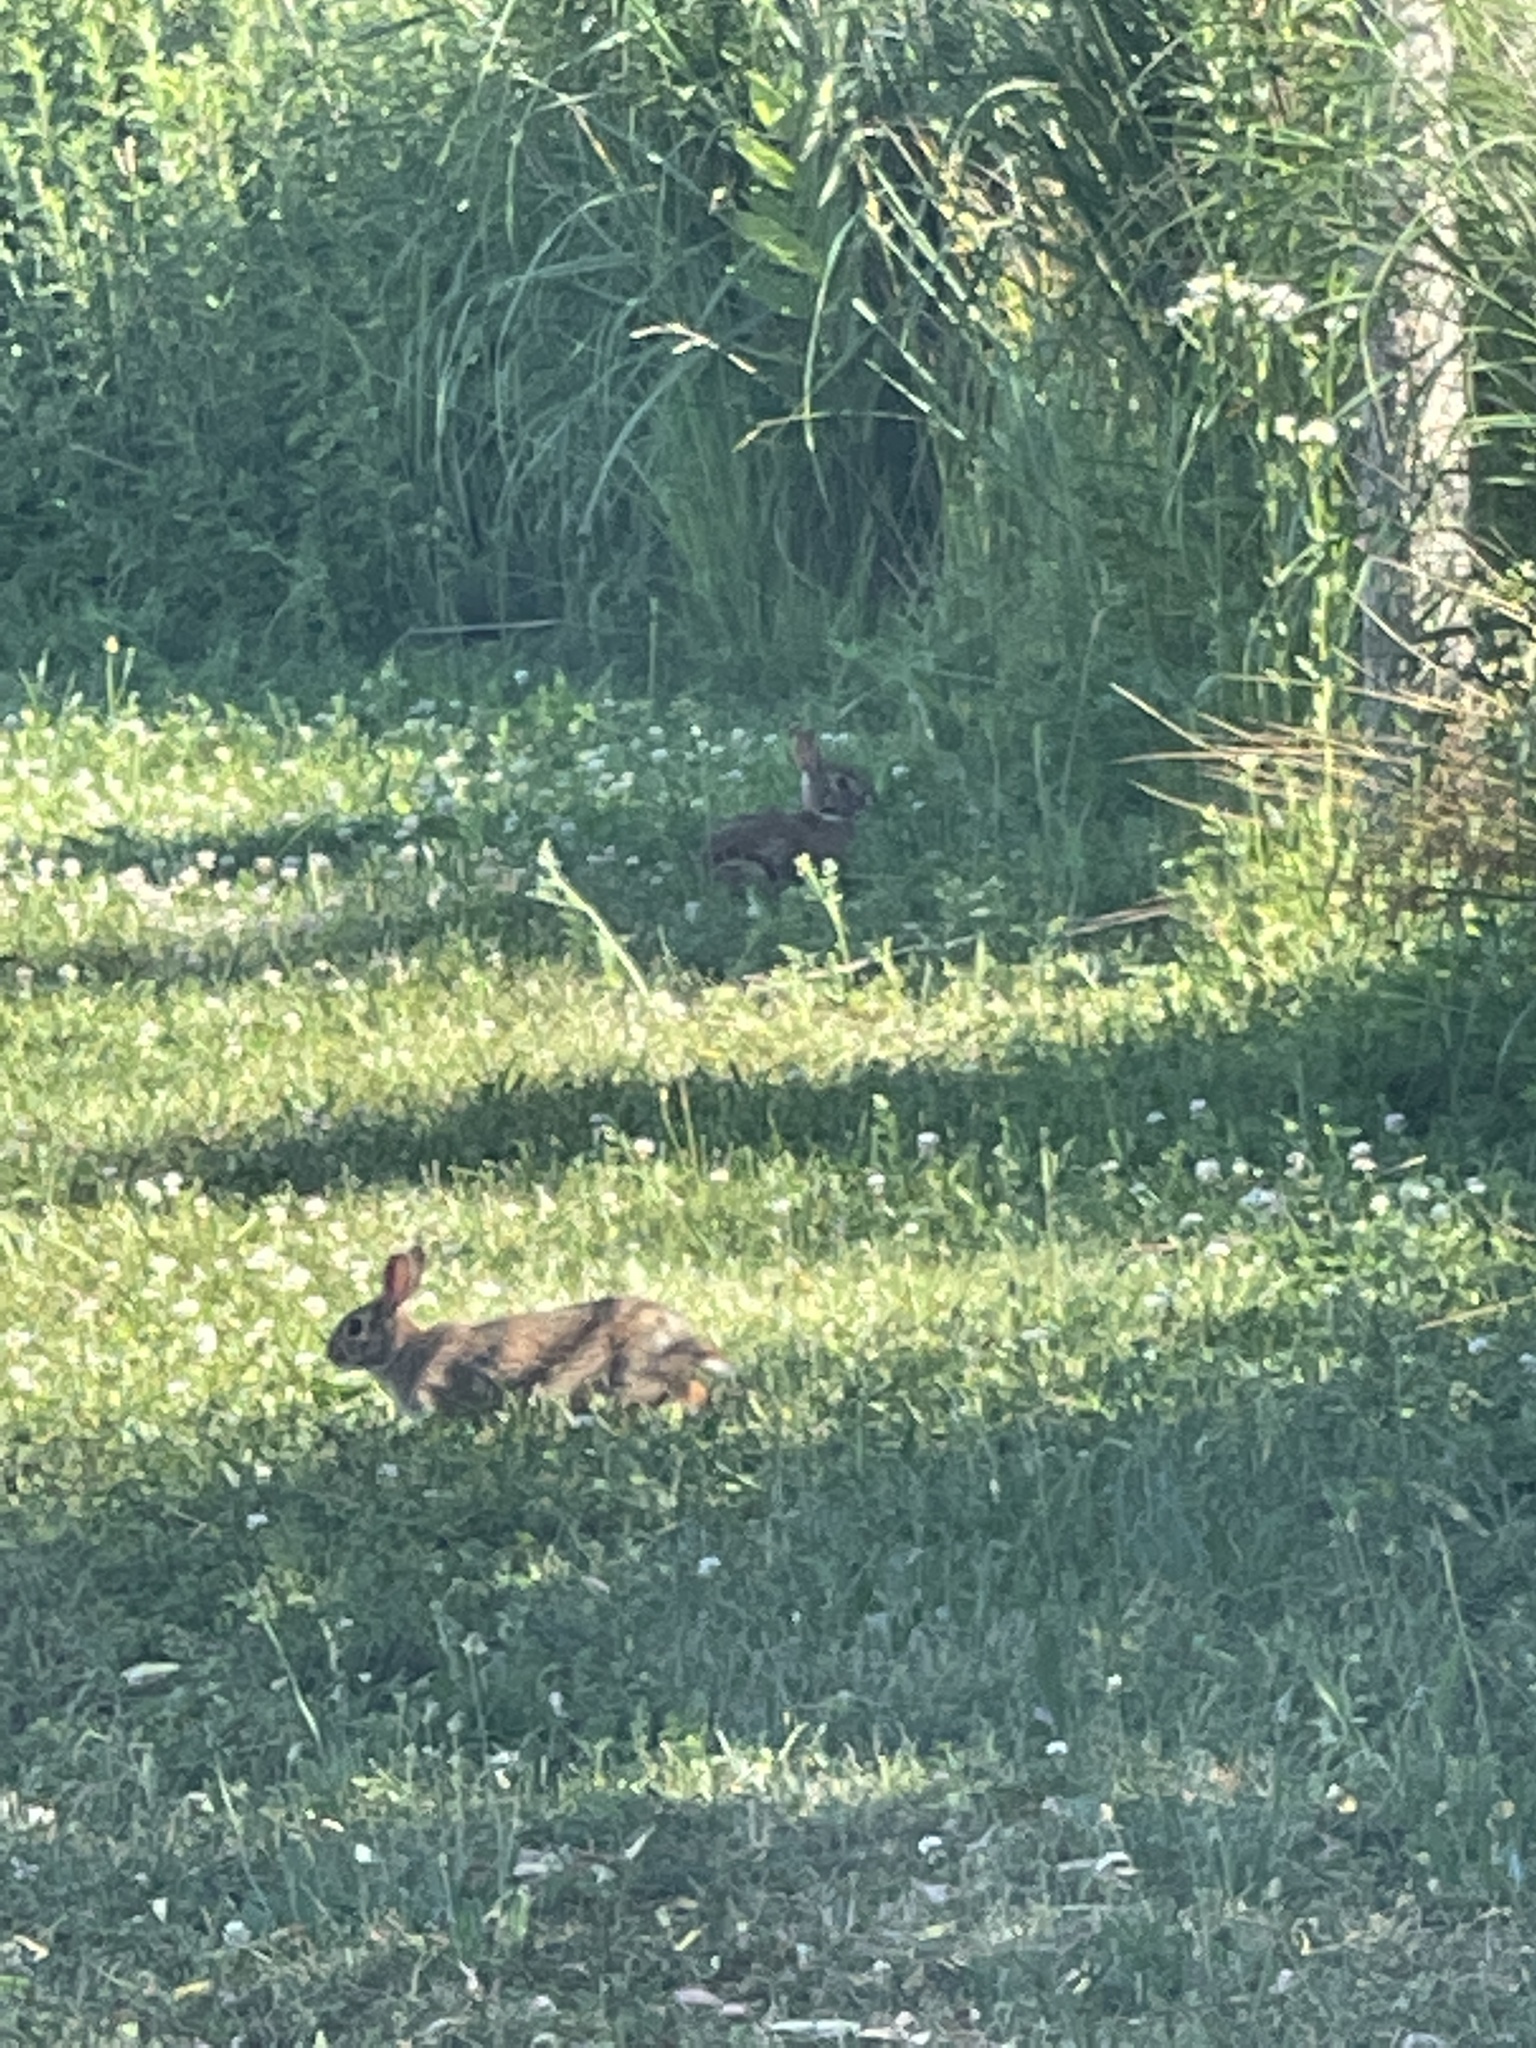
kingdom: Animalia
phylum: Chordata
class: Mammalia
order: Lagomorpha
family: Leporidae
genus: Sylvilagus
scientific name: Sylvilagus floridanus
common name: Eastern cottontail
